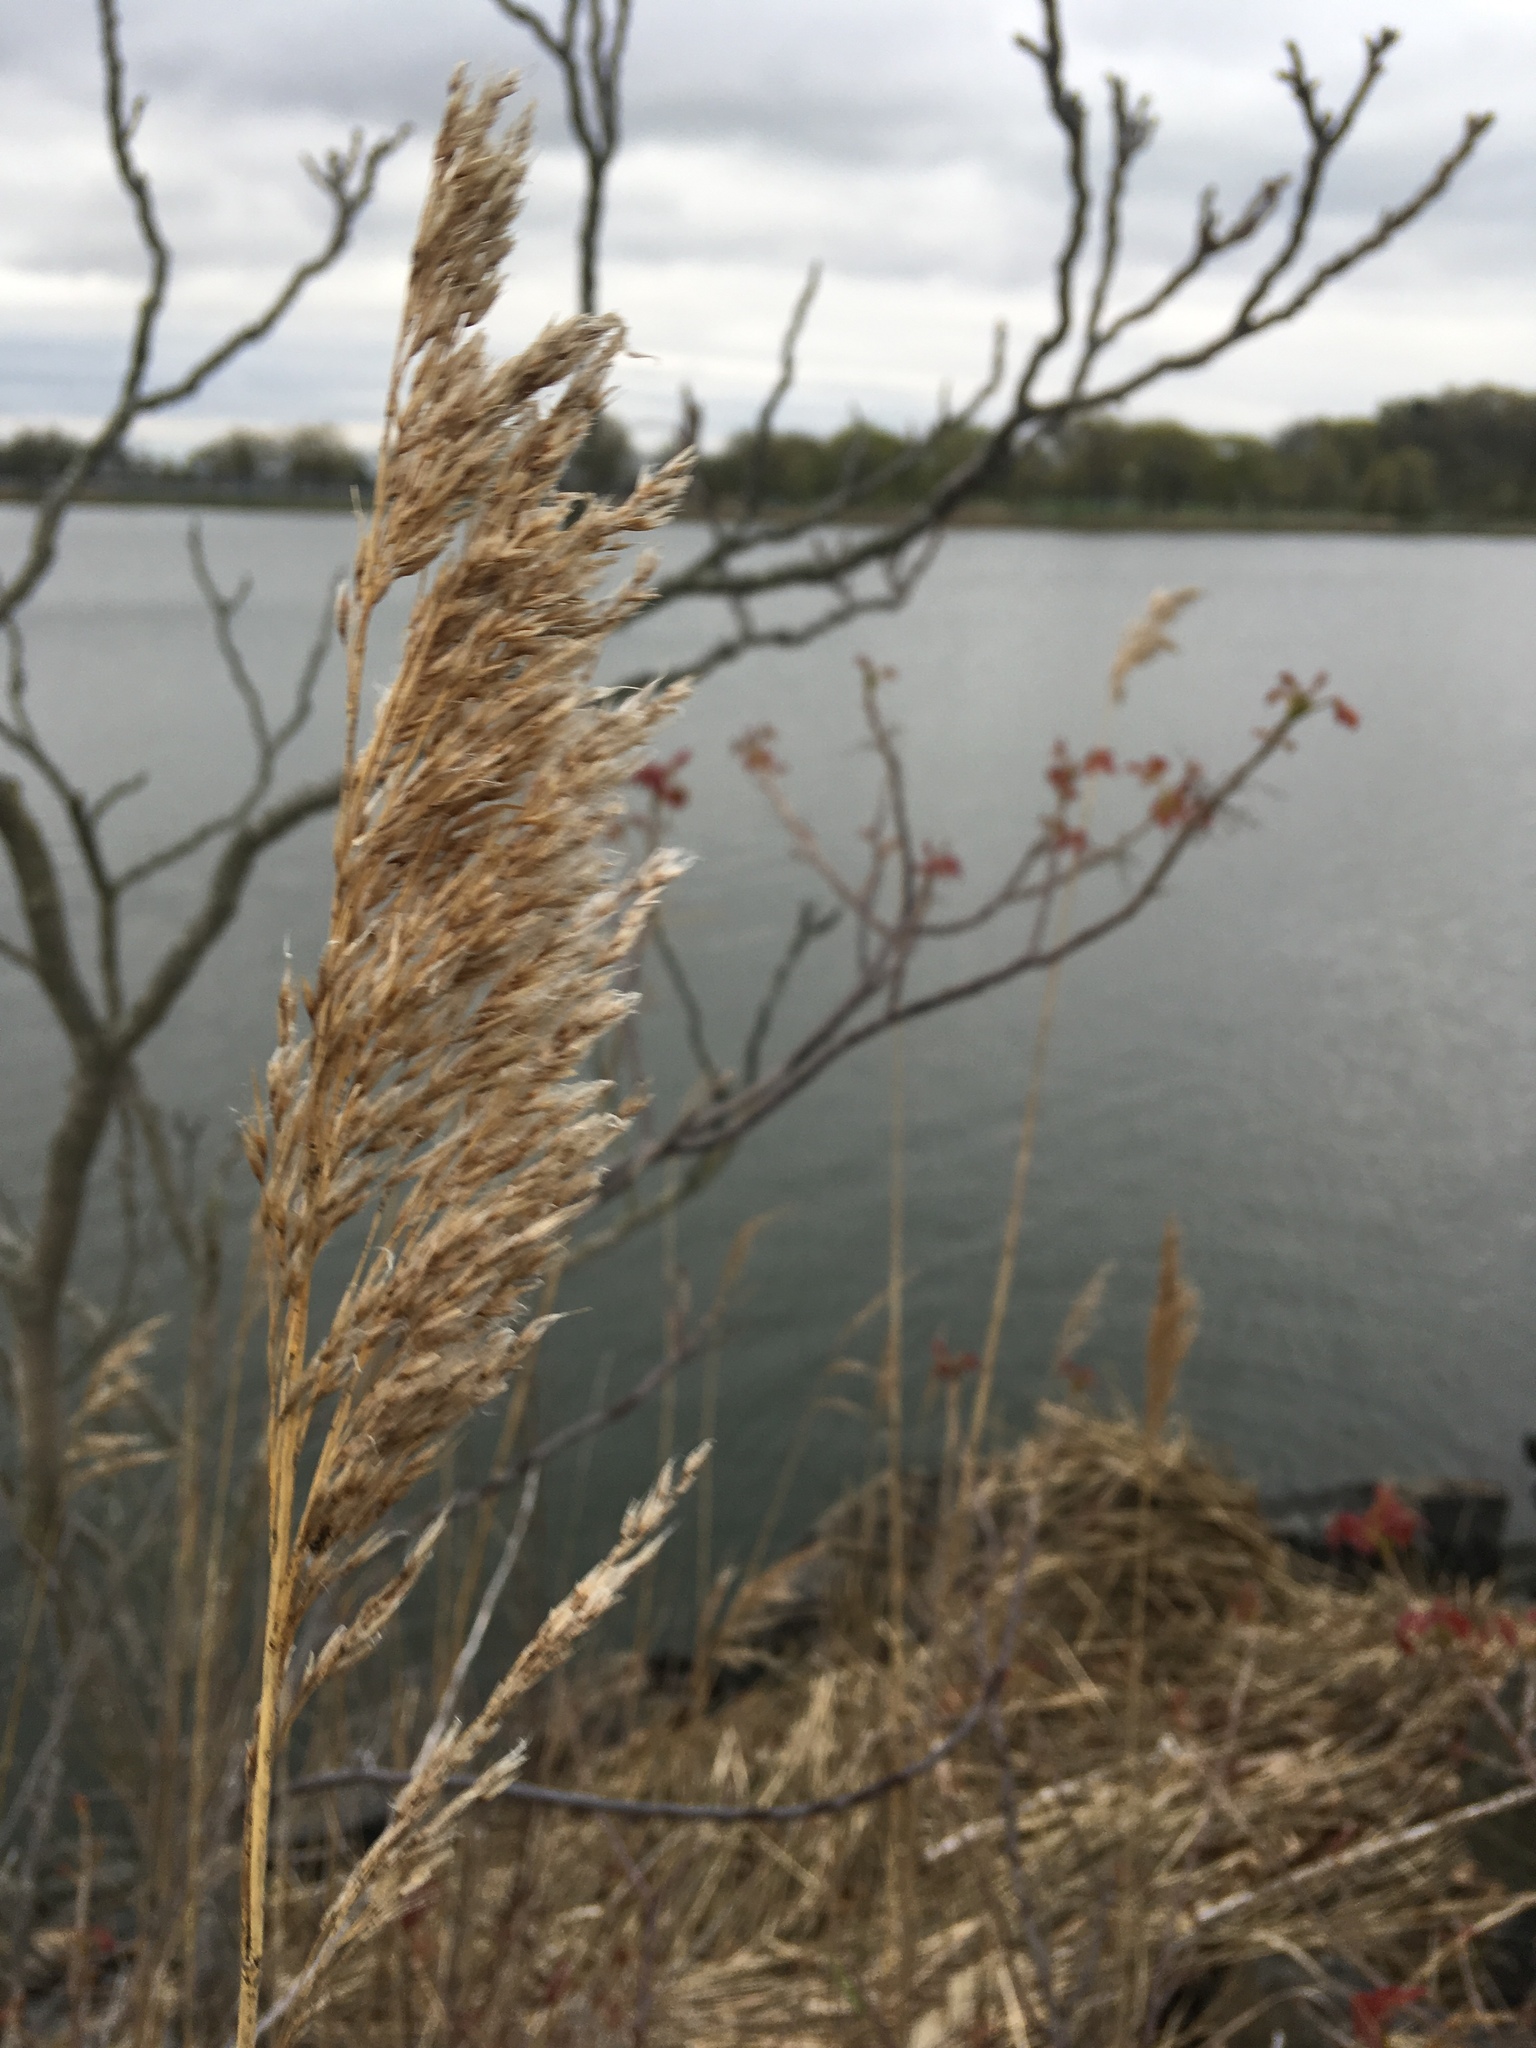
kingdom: Plantae
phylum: Tracheophyta
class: Liliopsida
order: Poales
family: Poaceae
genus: Phragmites
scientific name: Phragmites australis
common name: Common reed
